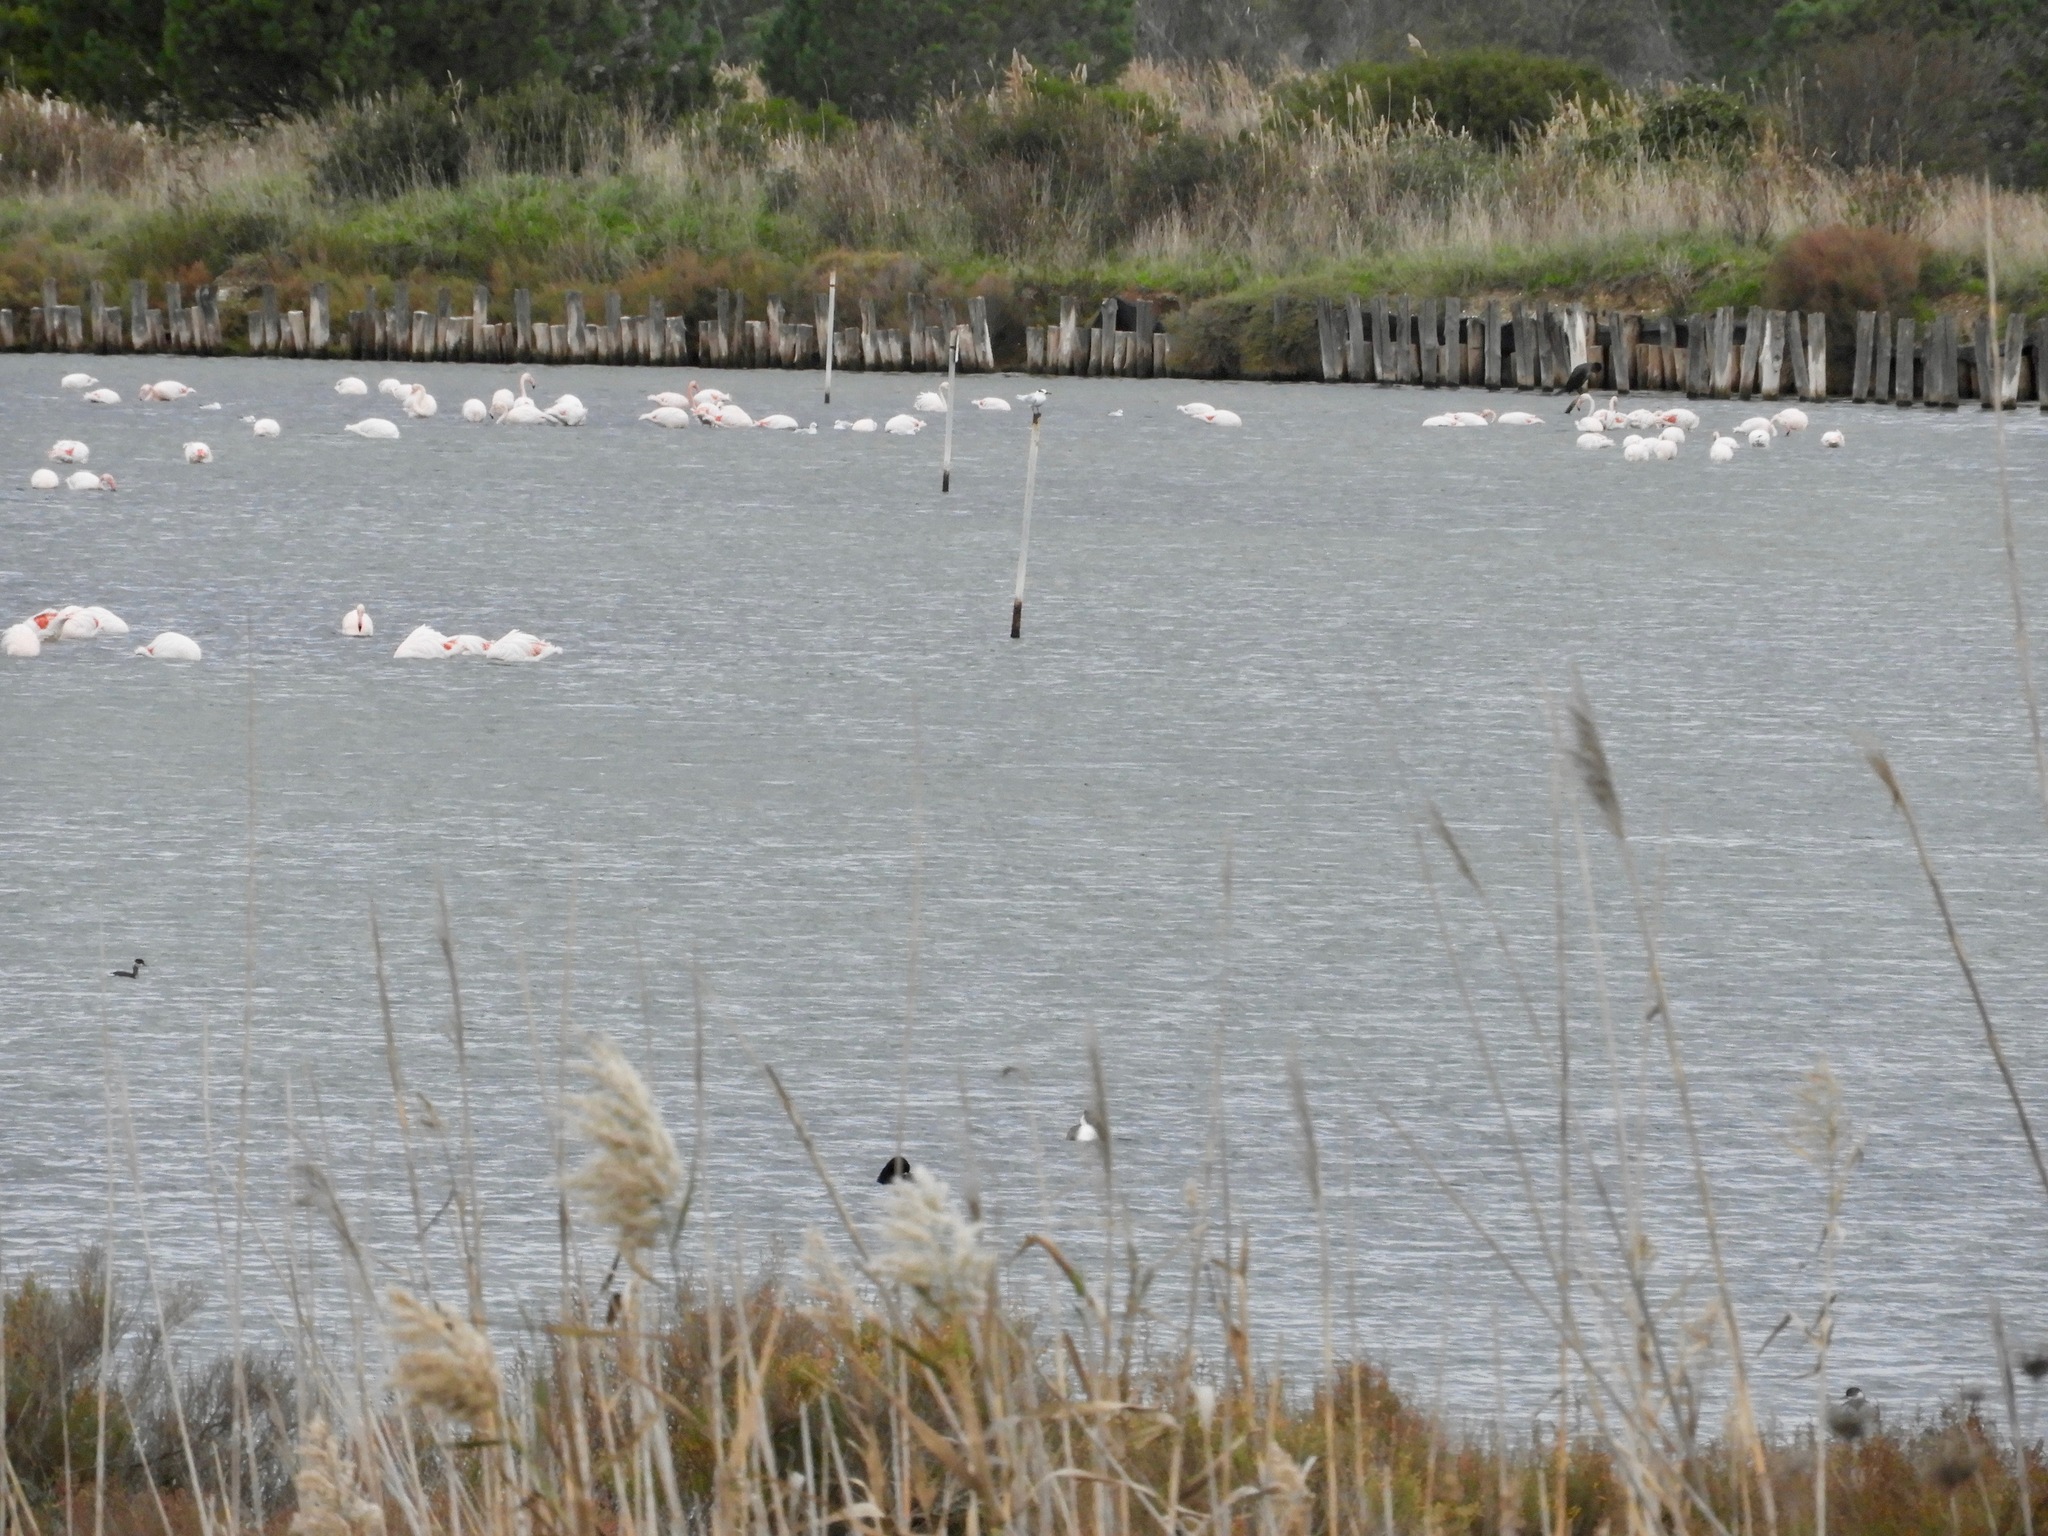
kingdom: Animalia
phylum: Chordata
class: Aves
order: Phoenicopteriformes
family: Phoenicopteridae
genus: Phoenicopterus
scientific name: Phoenicopterus roseus
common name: Greater flamingo
